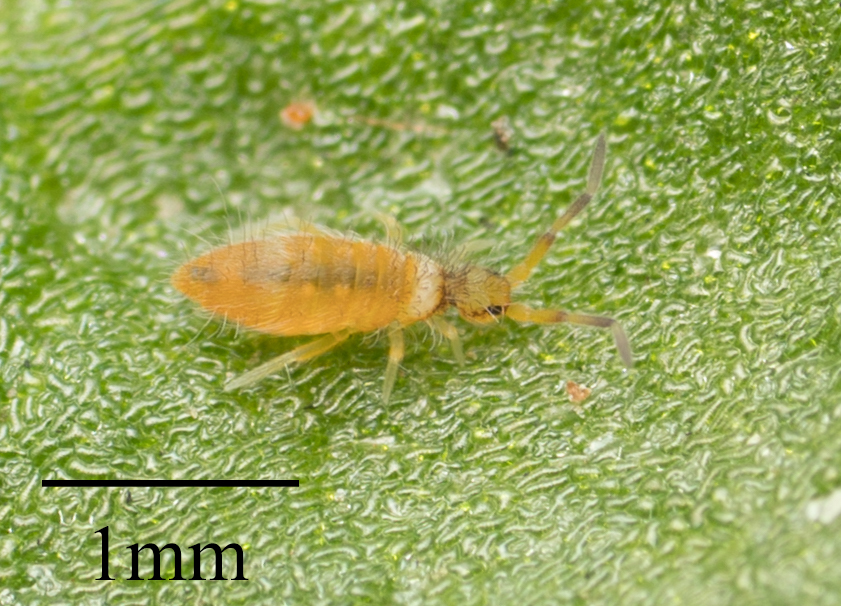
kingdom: Animalia
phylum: Arthropoda
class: Collembola
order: Entomobryomorpha
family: Entomobryidae
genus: Entomobrya
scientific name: Entomobrya atrocincta
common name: Springtail
